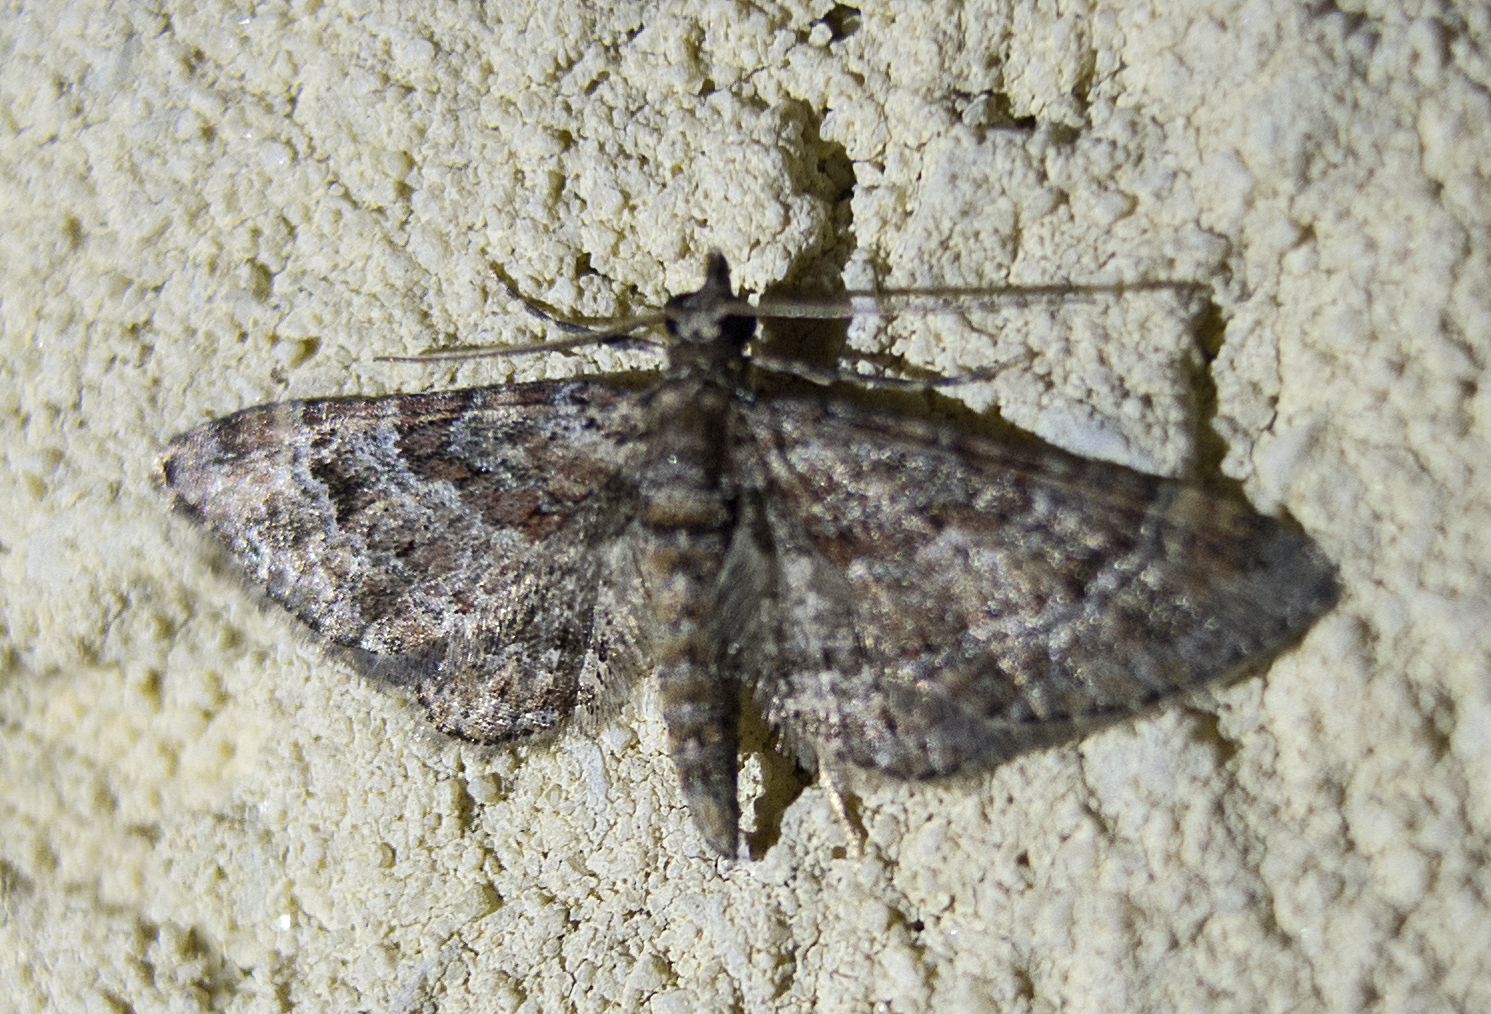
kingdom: Animalia
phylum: Arthropoda
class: Insecta
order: Lepidoptera
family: Geometridae
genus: Gymnoscelis
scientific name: Gymnoscelis rufifasciata
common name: Double-striped pug
